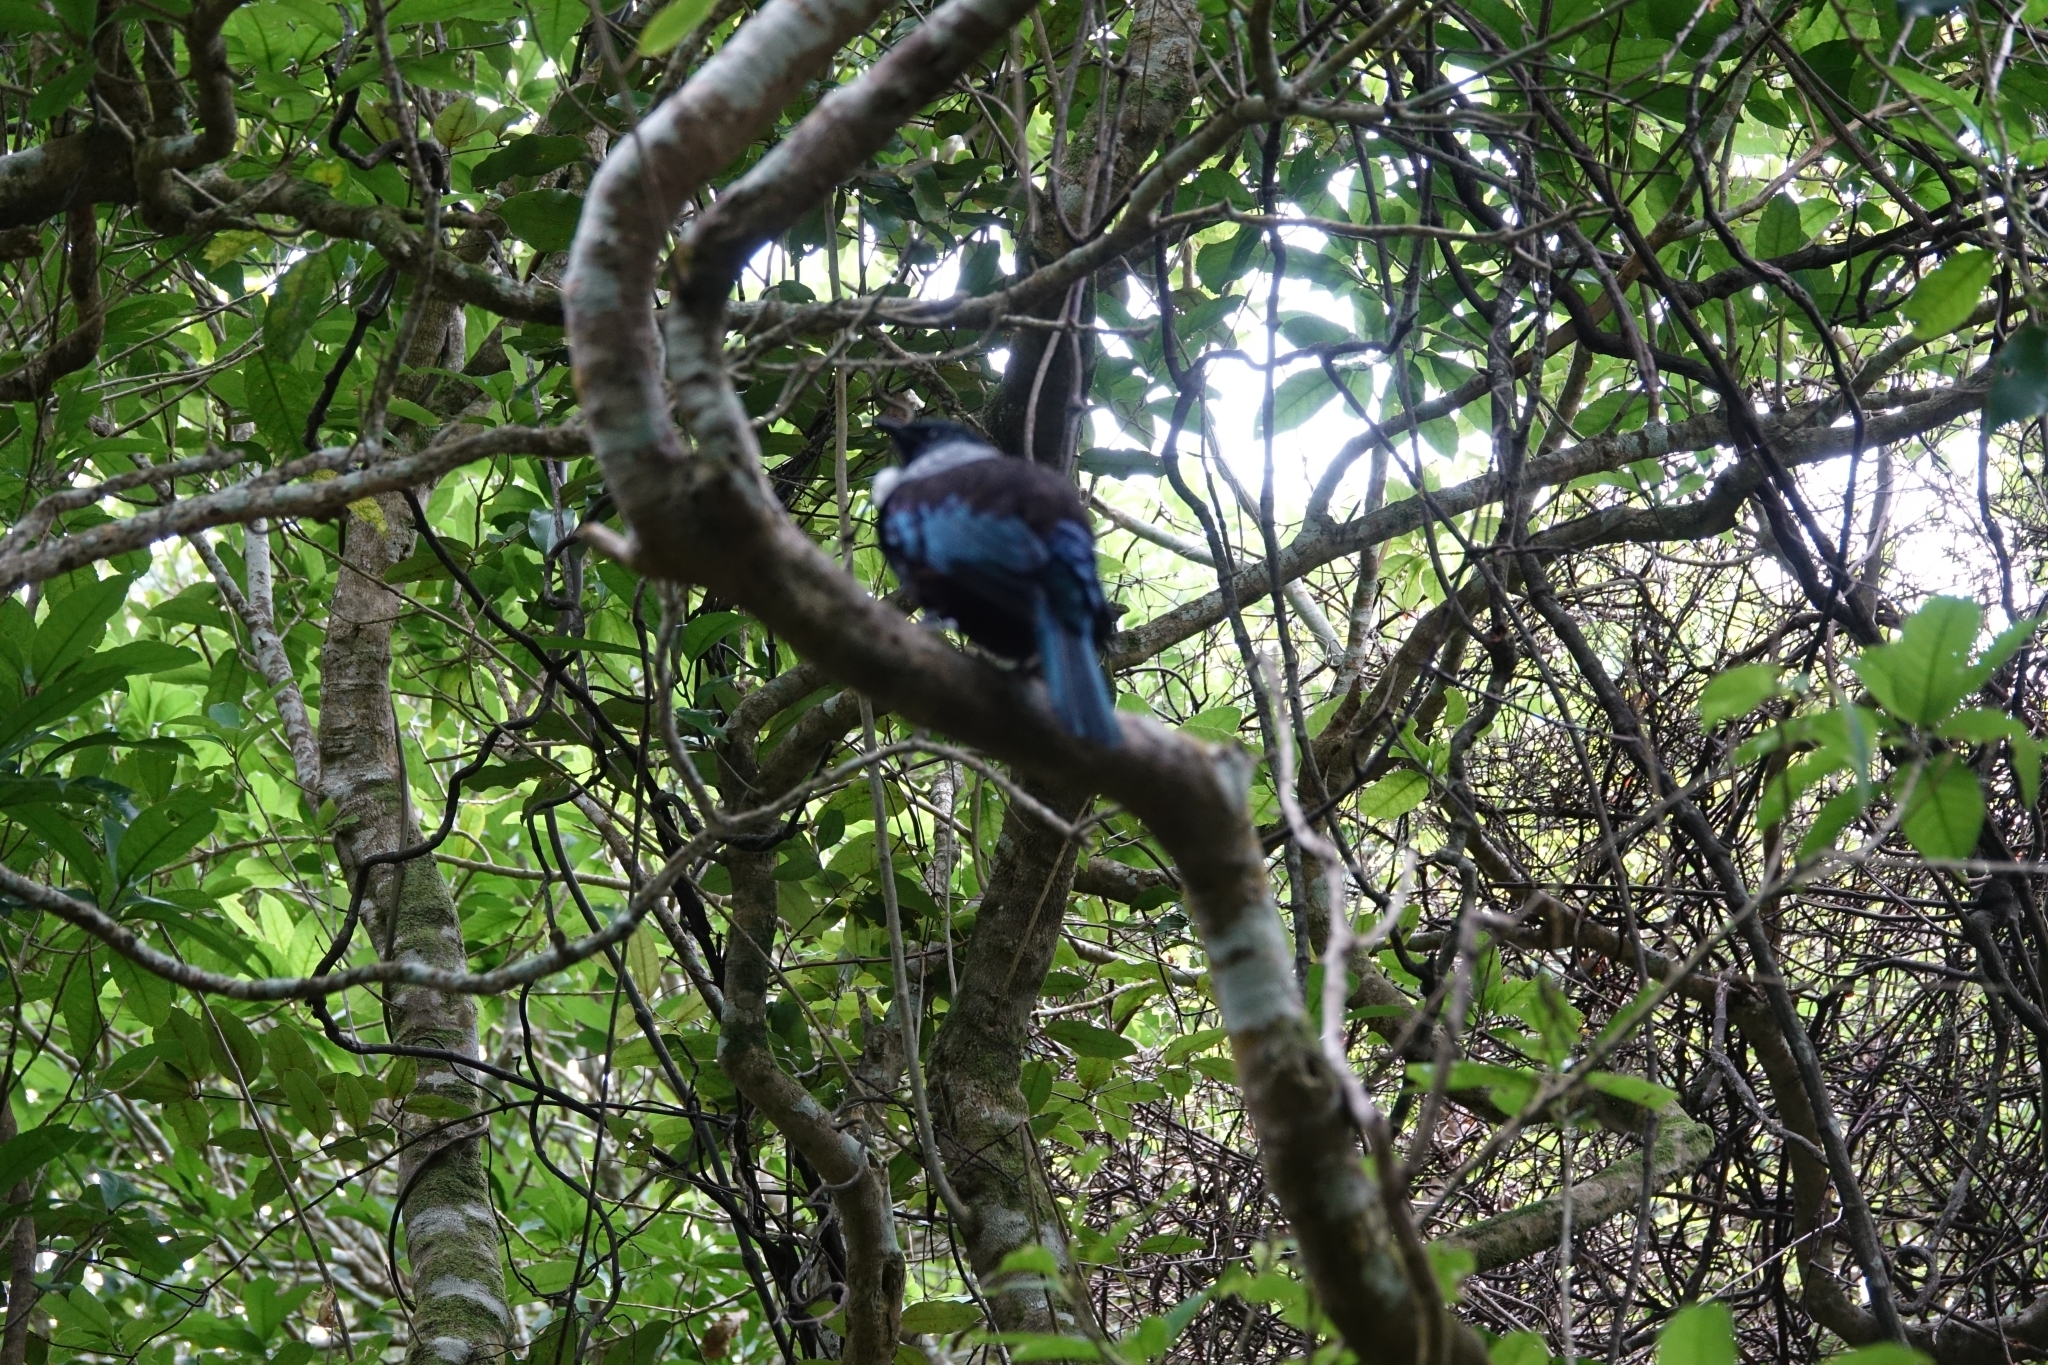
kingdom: Animalia
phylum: Chordata
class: Aves
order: Passeriformes
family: Meliphagidae
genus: Prosthemadera
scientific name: Prosthemadera novaeseelandiae
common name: Tui
